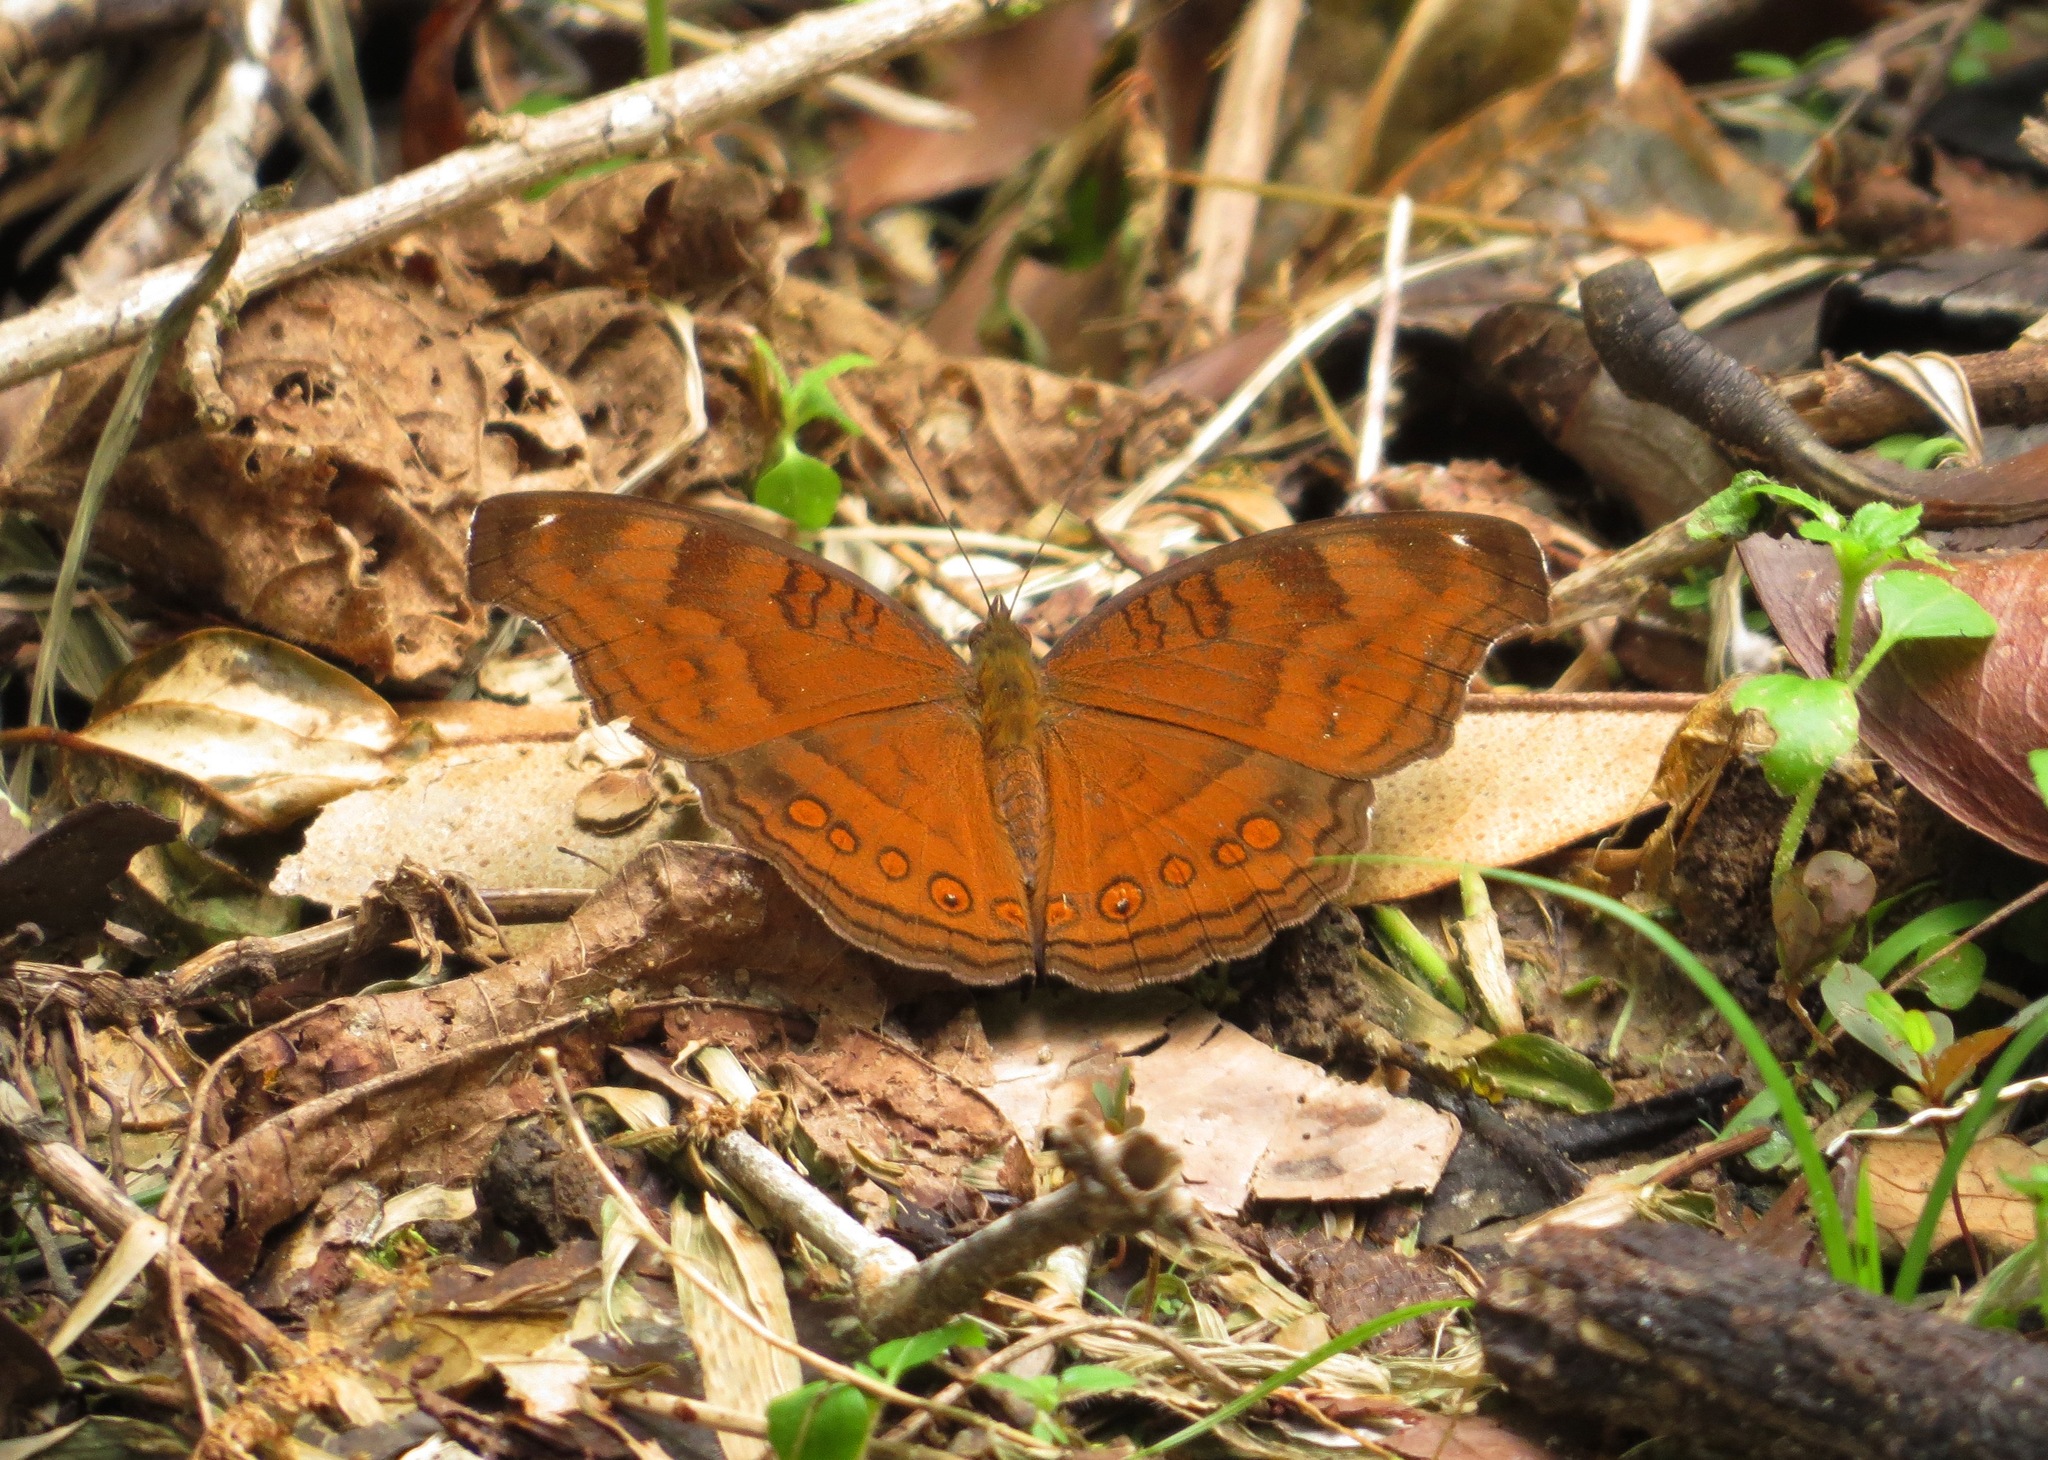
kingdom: Animalia
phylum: Arthropoda
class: Insecta
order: Lepidoptera
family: Nymphalidae
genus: Junonia
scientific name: Junonia hedonia
